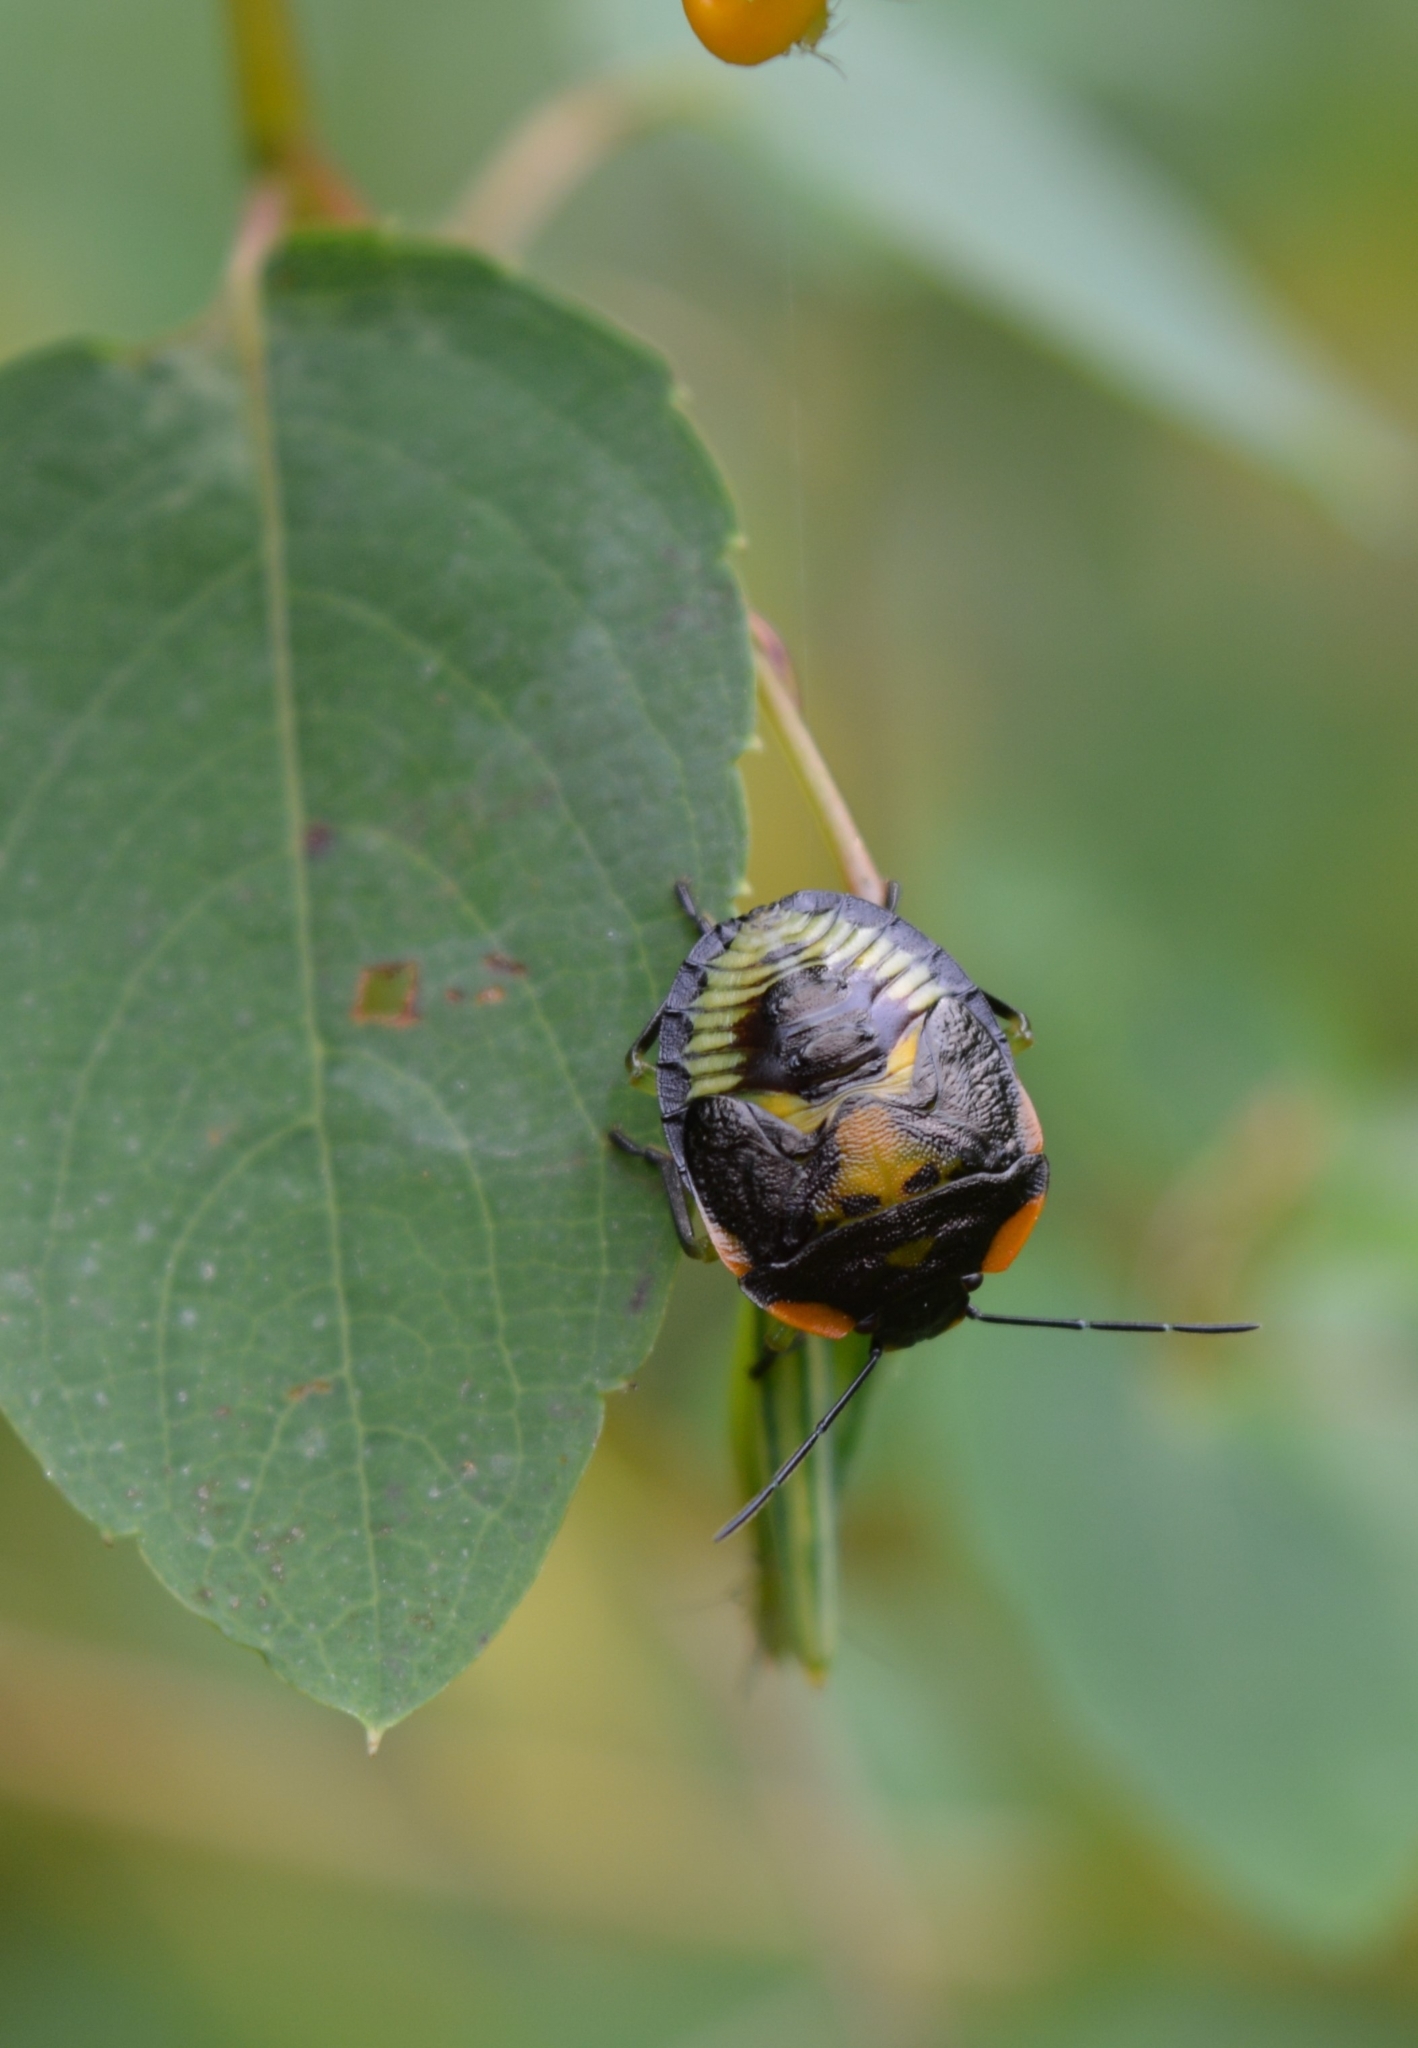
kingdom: Animalia
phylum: Arthropoda
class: Insecta
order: Hemiptera
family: Pentatomidae
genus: Chinavia
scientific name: Chinavia hilaris
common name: Green stink bug
